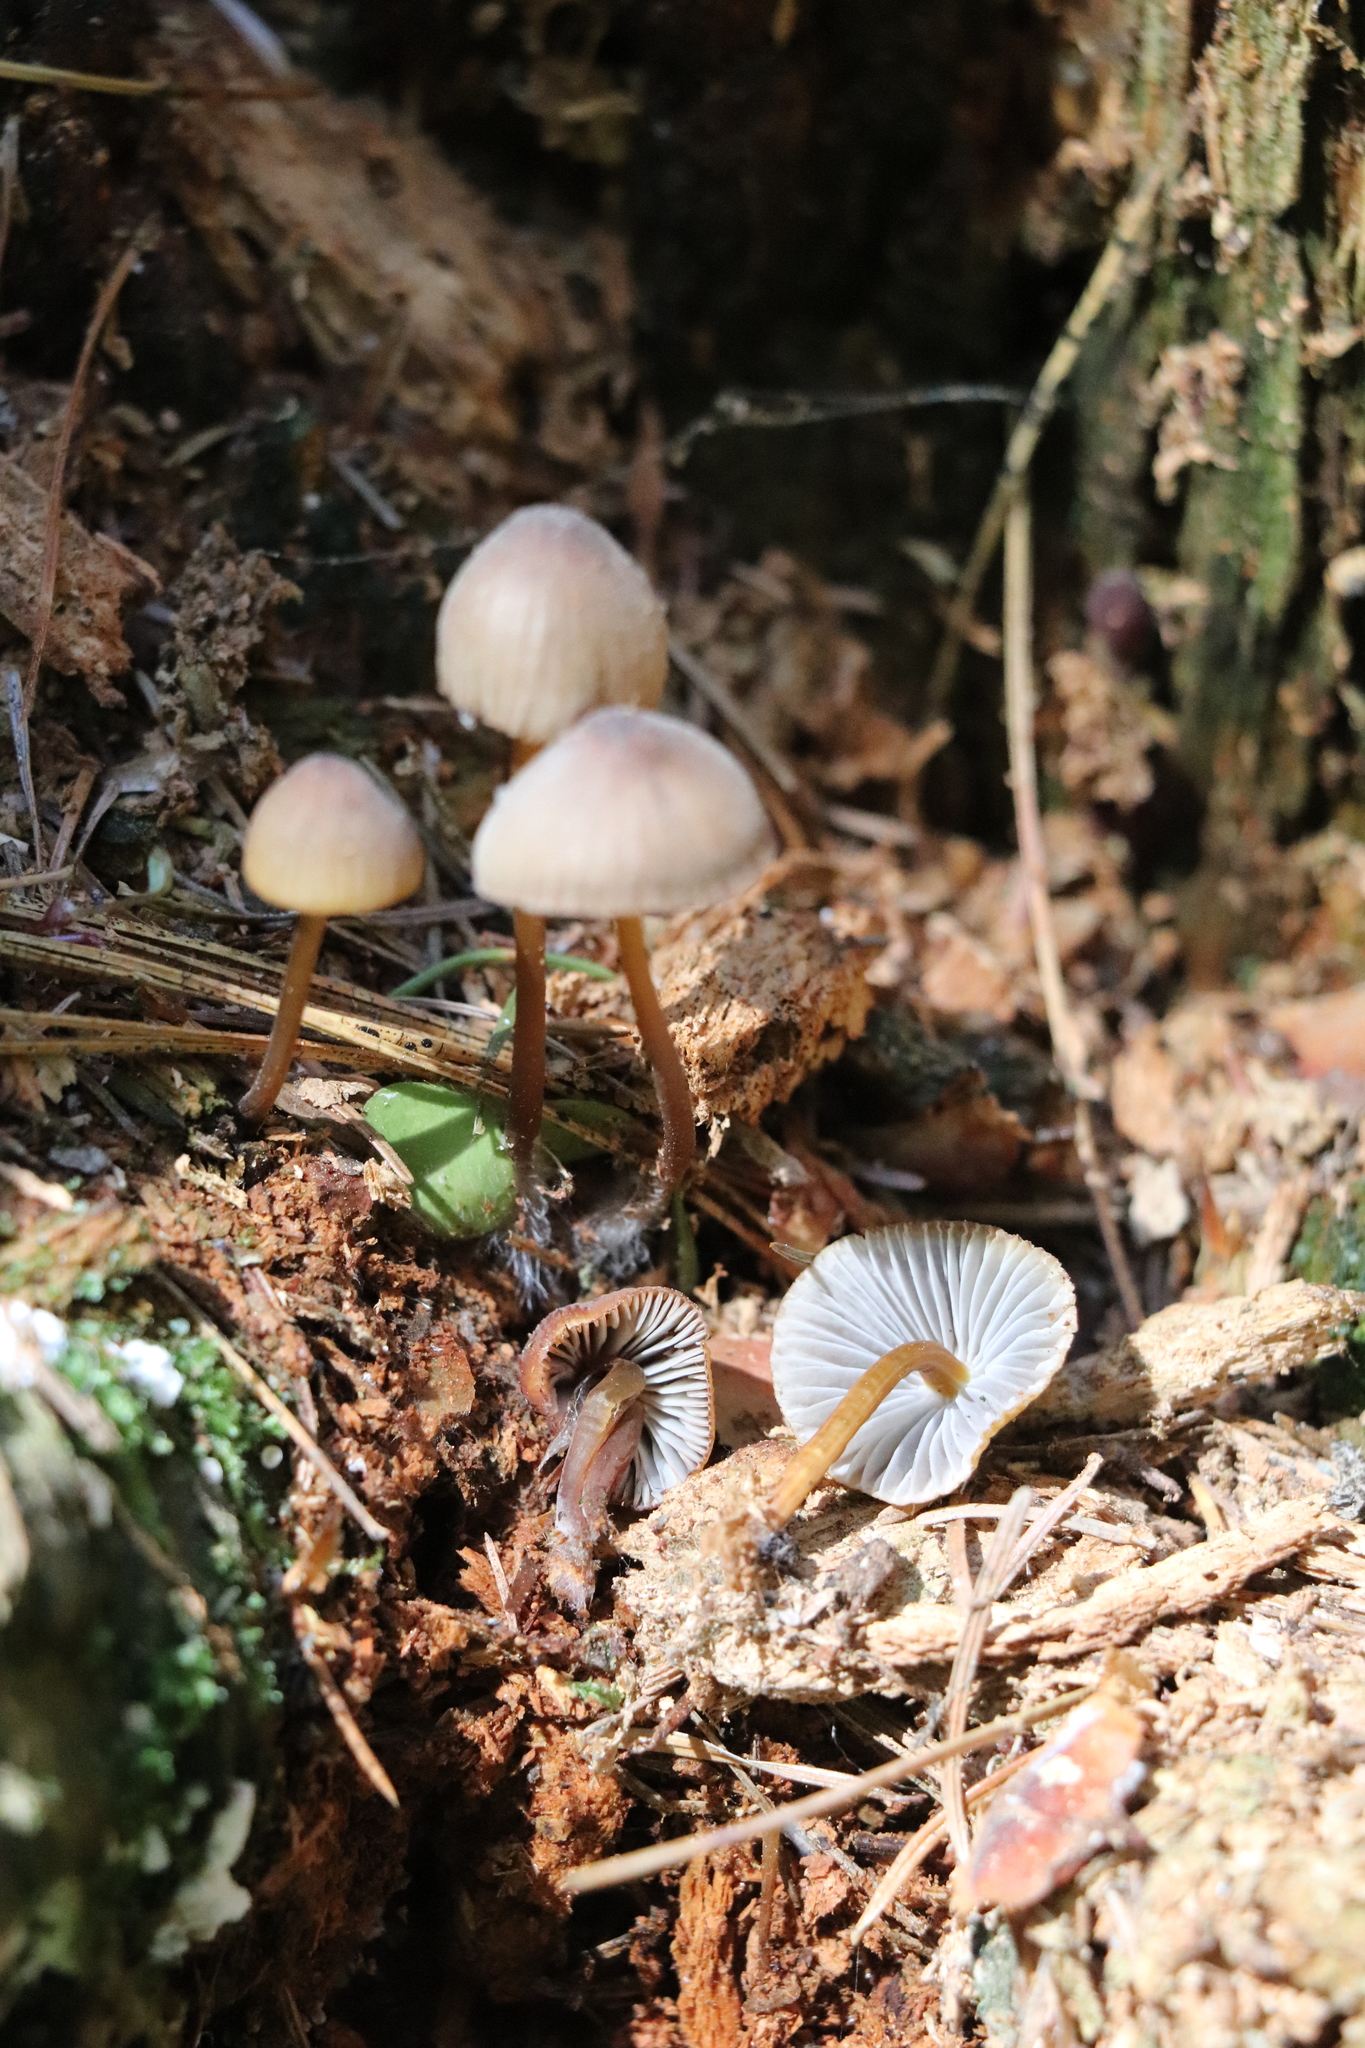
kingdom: Fungi
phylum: Basidiomycota
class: Agaricomycetes
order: Agaricales
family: Mycenaceae
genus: Mycena
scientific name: Mycena viridimarginata
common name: Olive edge bonnet
